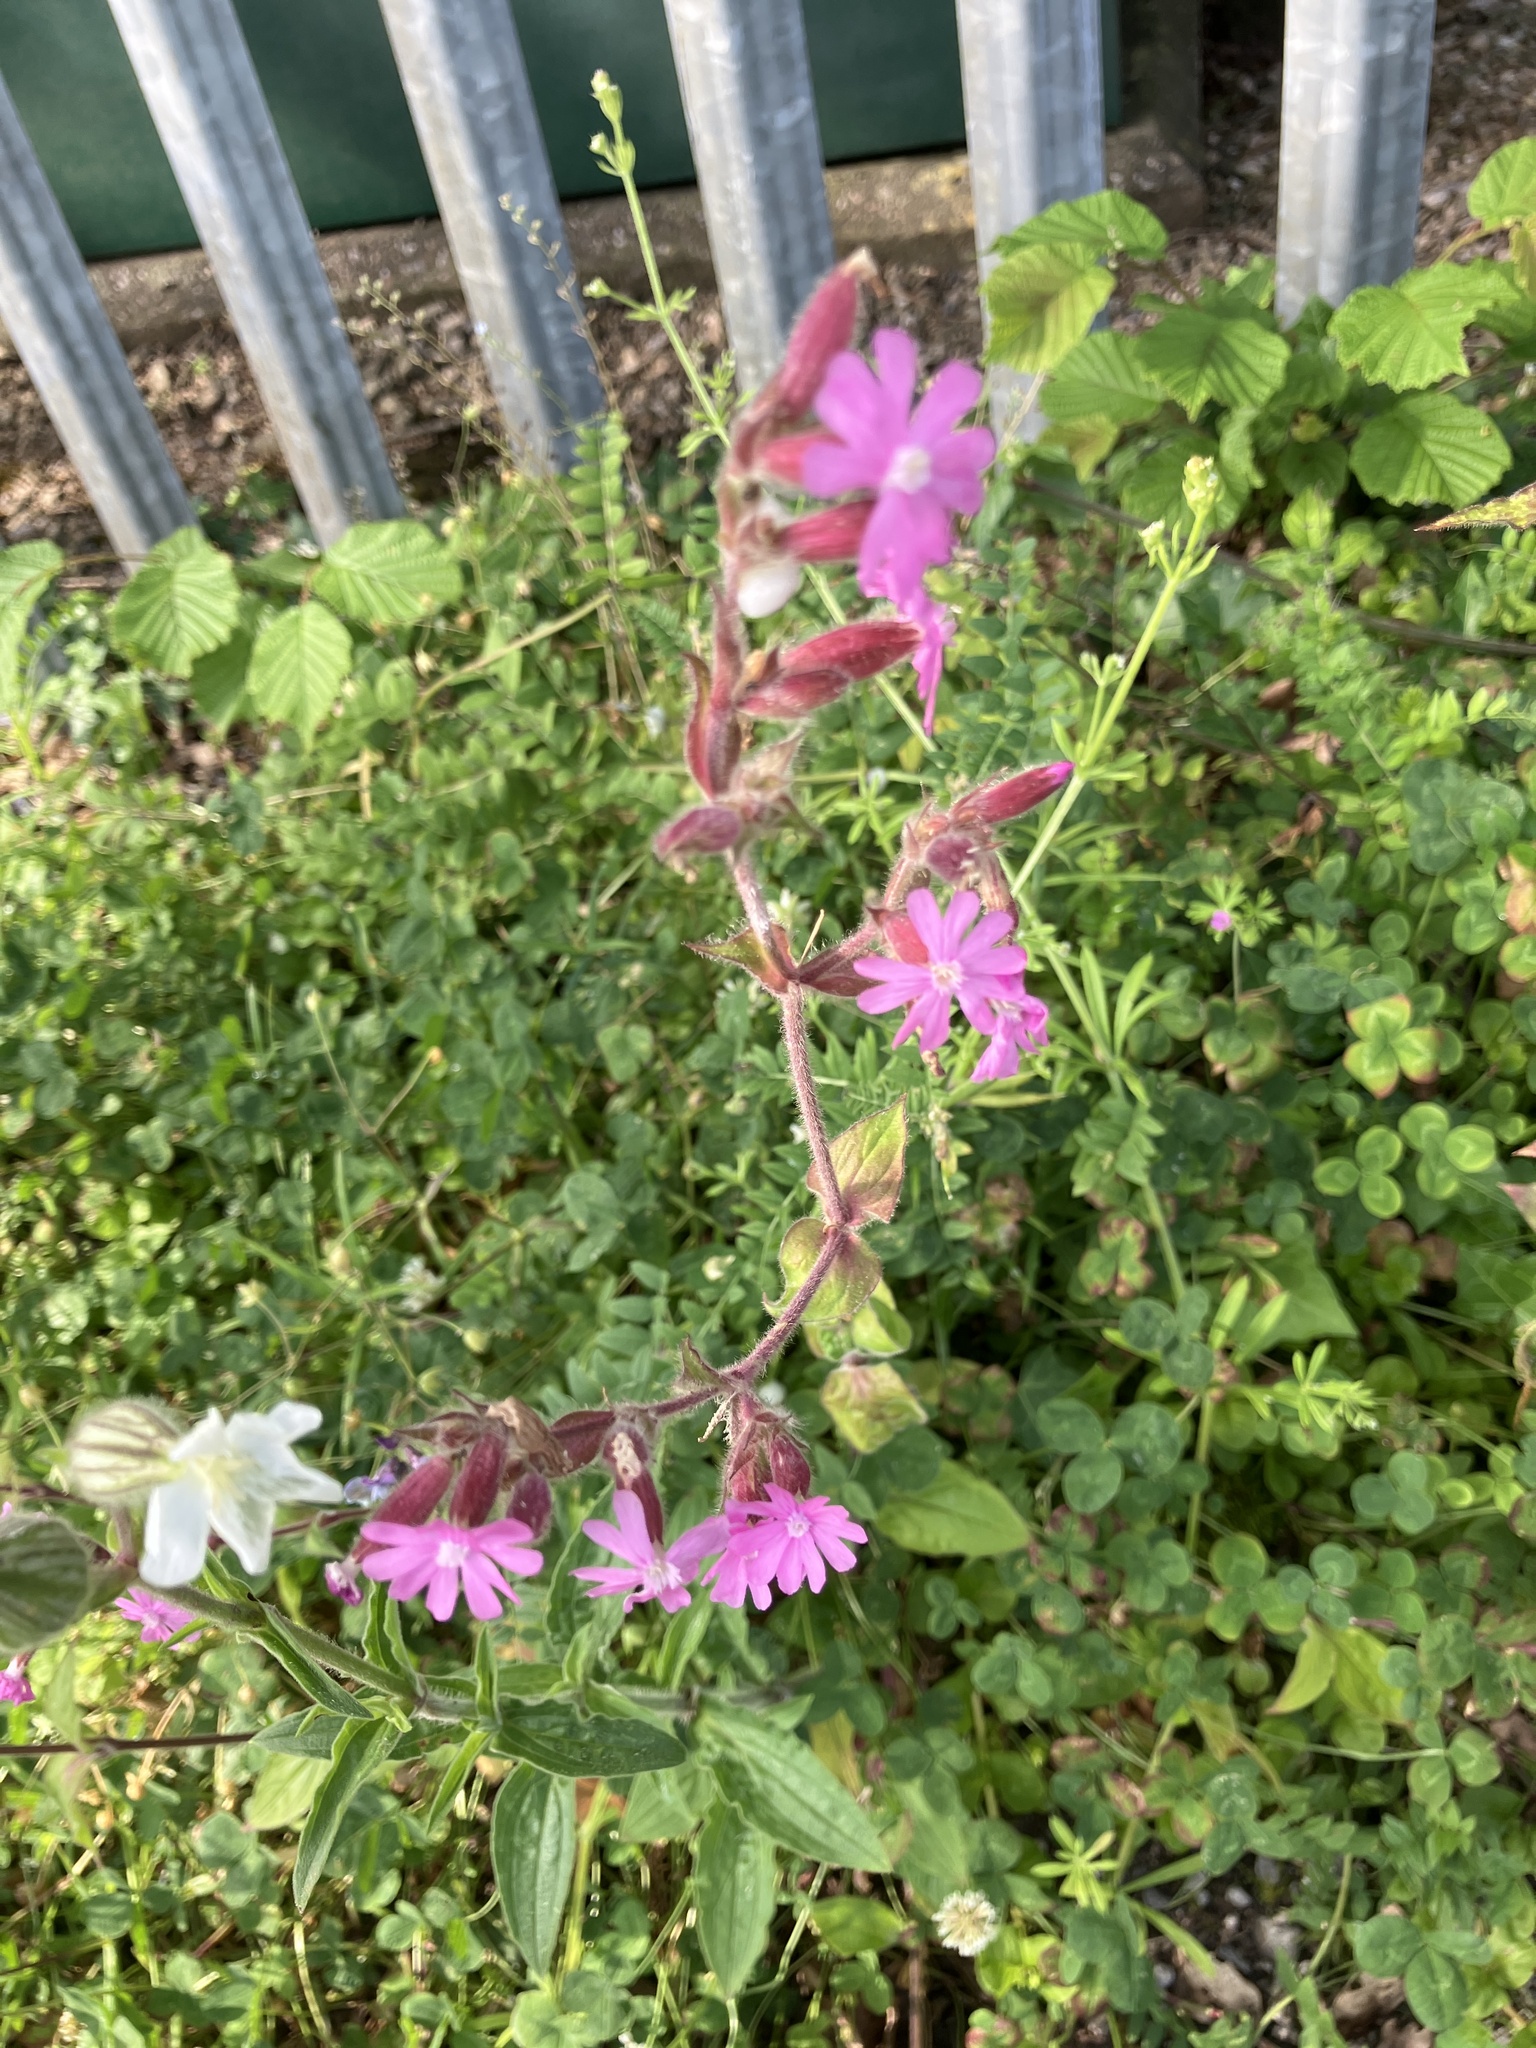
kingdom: Plantae
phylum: Tracheophyta
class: Magnoliopsida
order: Caryophyllales
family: Caryophyllaceae
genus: Silene
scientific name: Silene dioica
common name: Red campion
